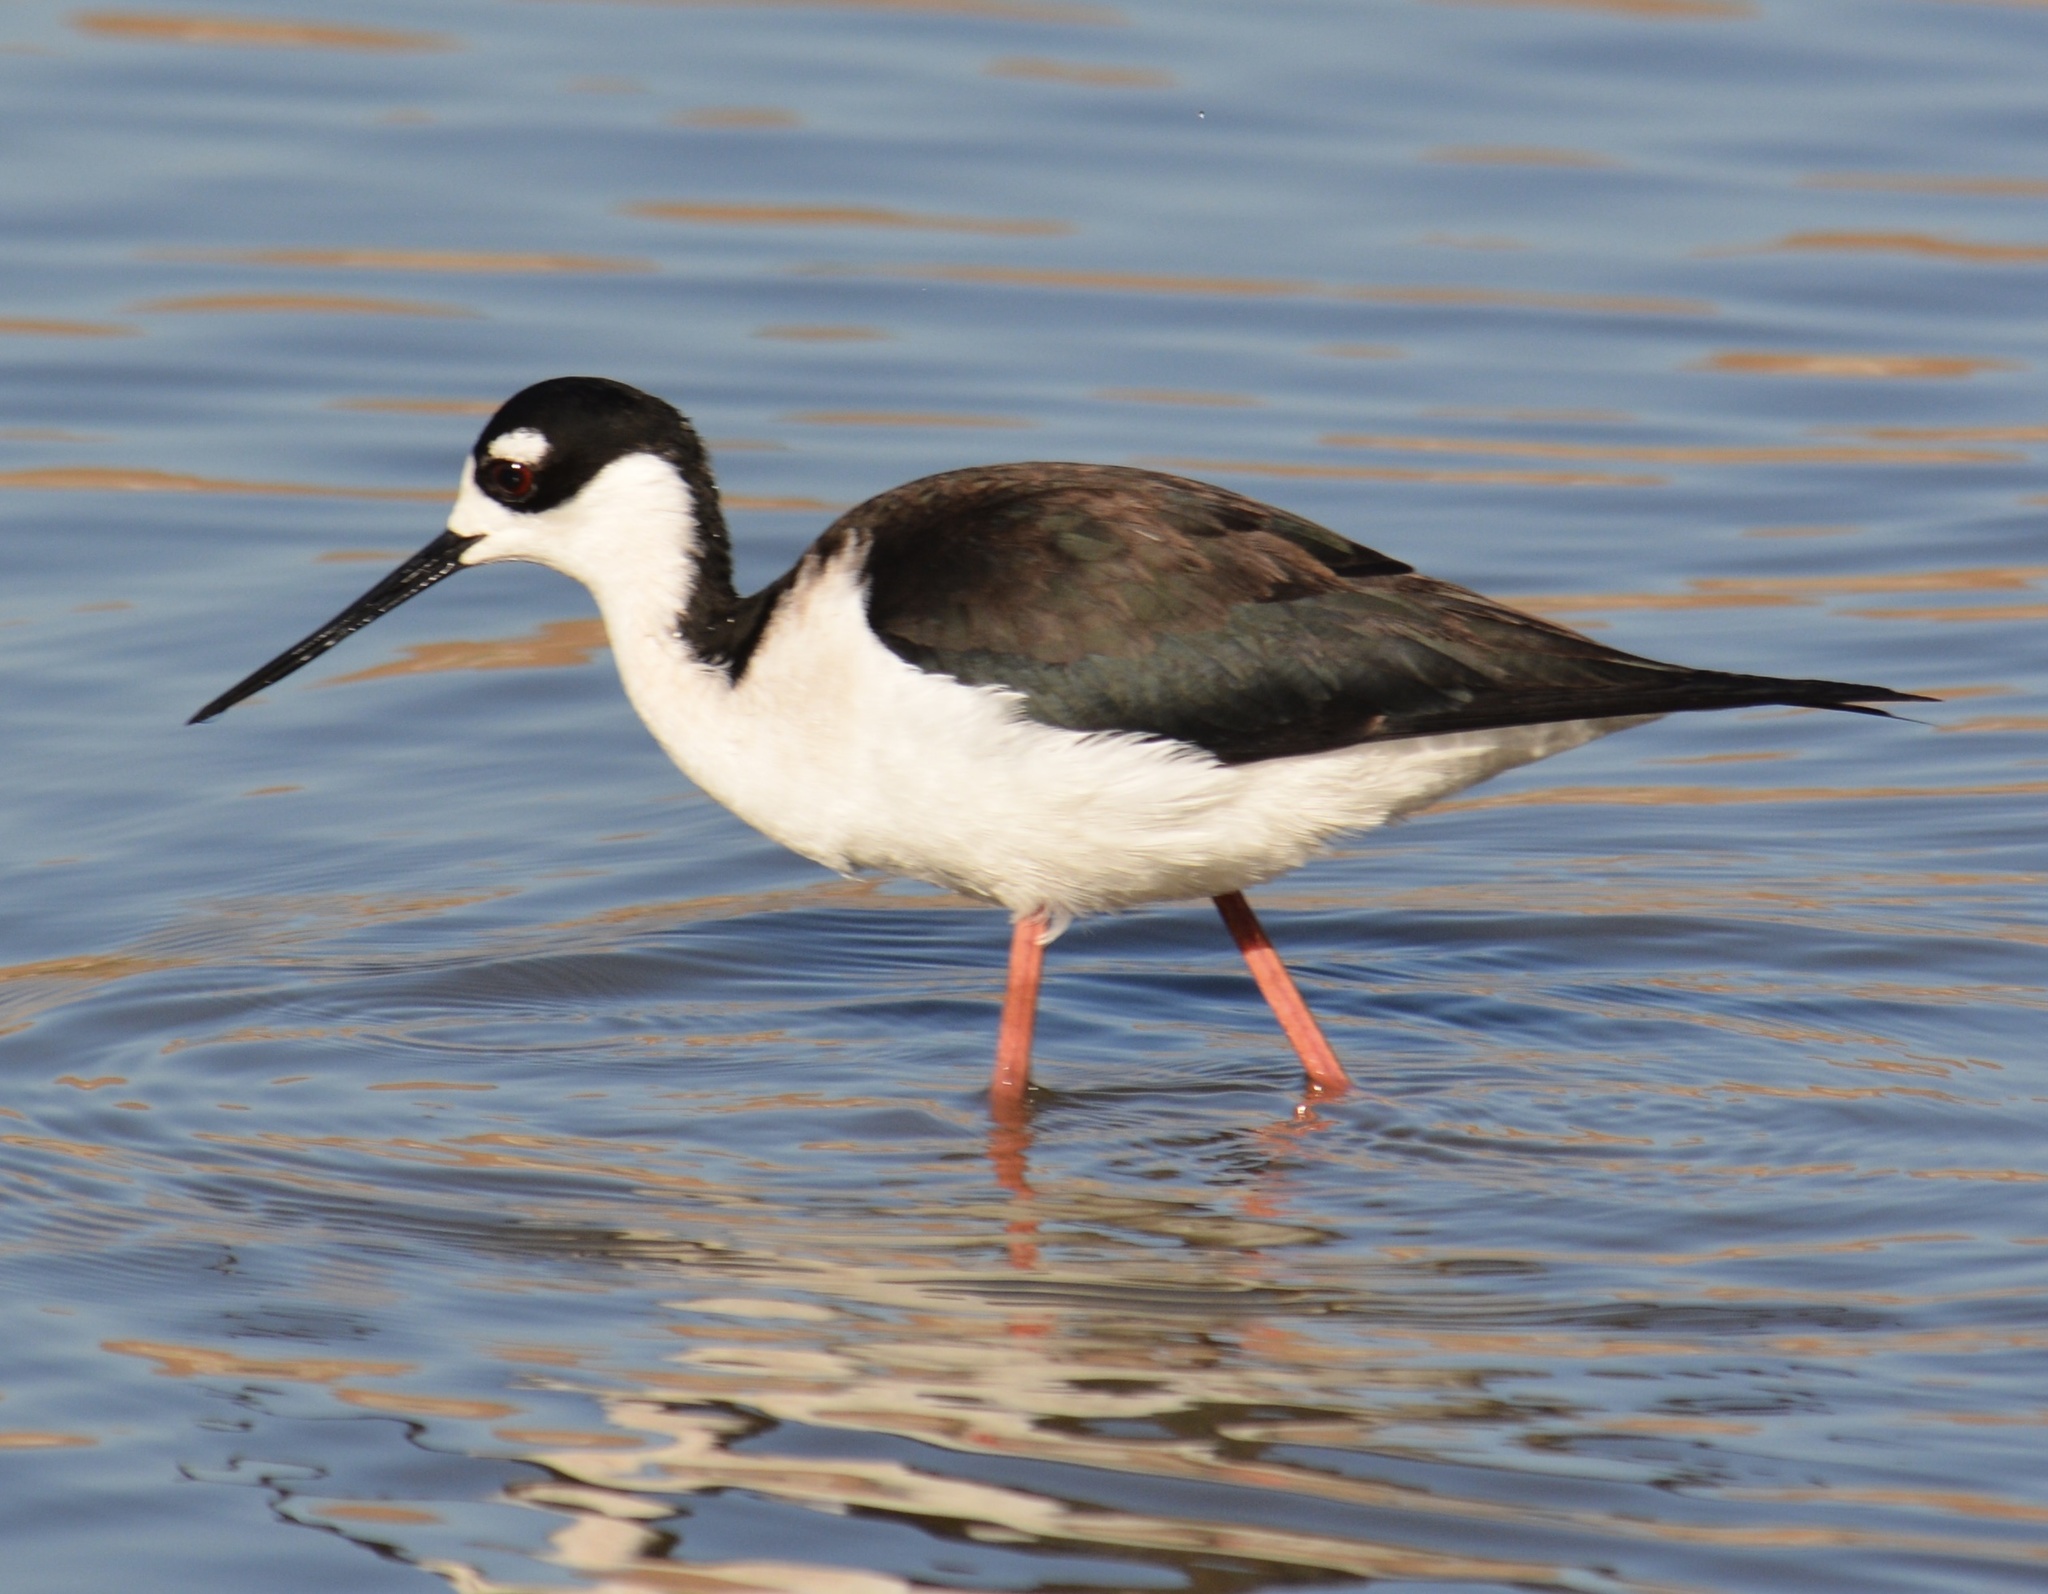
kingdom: Animalia
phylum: Chordata
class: Aves
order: Charadriiformes
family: Recurvirostridae
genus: Himantopus
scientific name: Himantopus mexicanus
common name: Black-necked stilt
